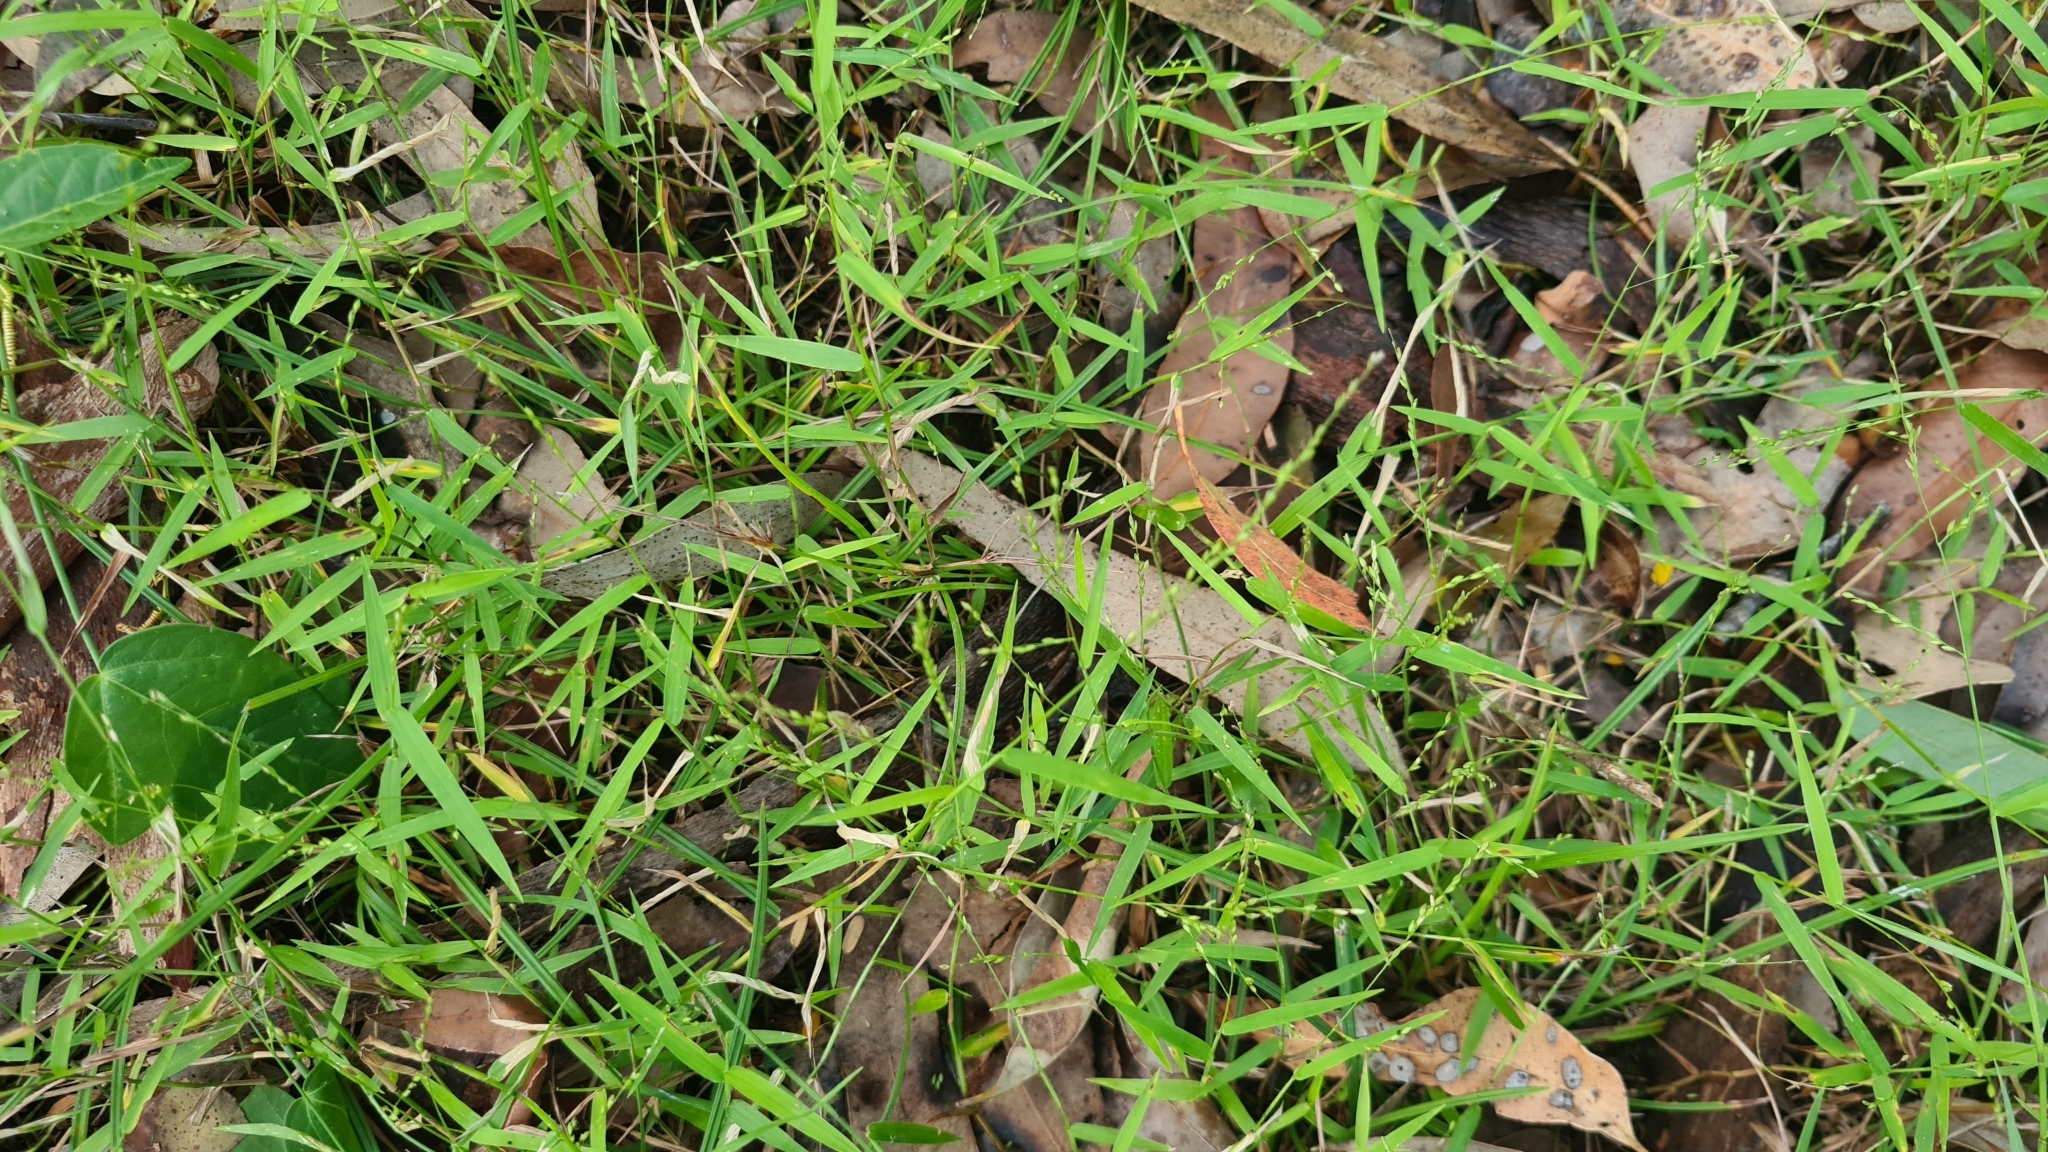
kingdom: Plantae
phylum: Tracheophyta
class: Liliopsida
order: Poales
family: Poaceae
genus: Ottochloa
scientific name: Ottochloa gracillima
